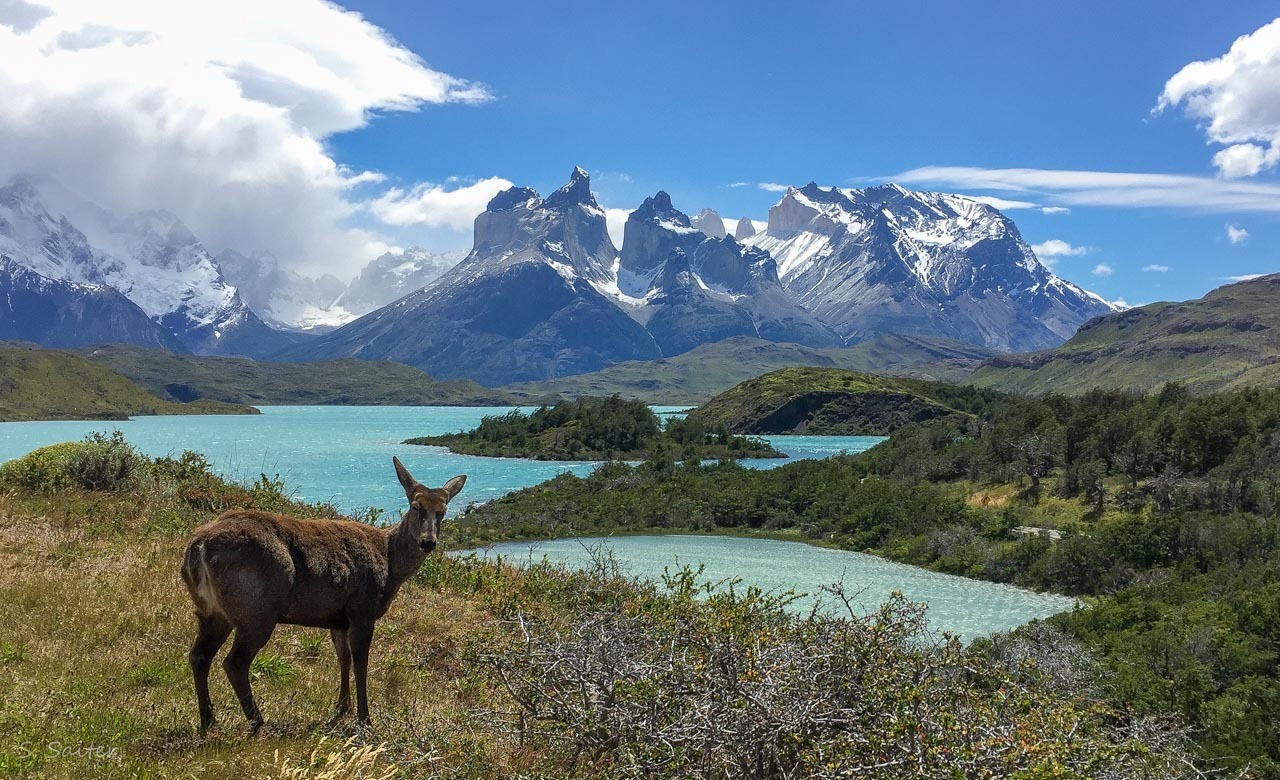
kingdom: Animalia
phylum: Chordata
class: Mammalia
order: Artiodactyla
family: Cervidae
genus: Hippocamelus
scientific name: Hippocamelus bisulcus
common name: South andean huemul
